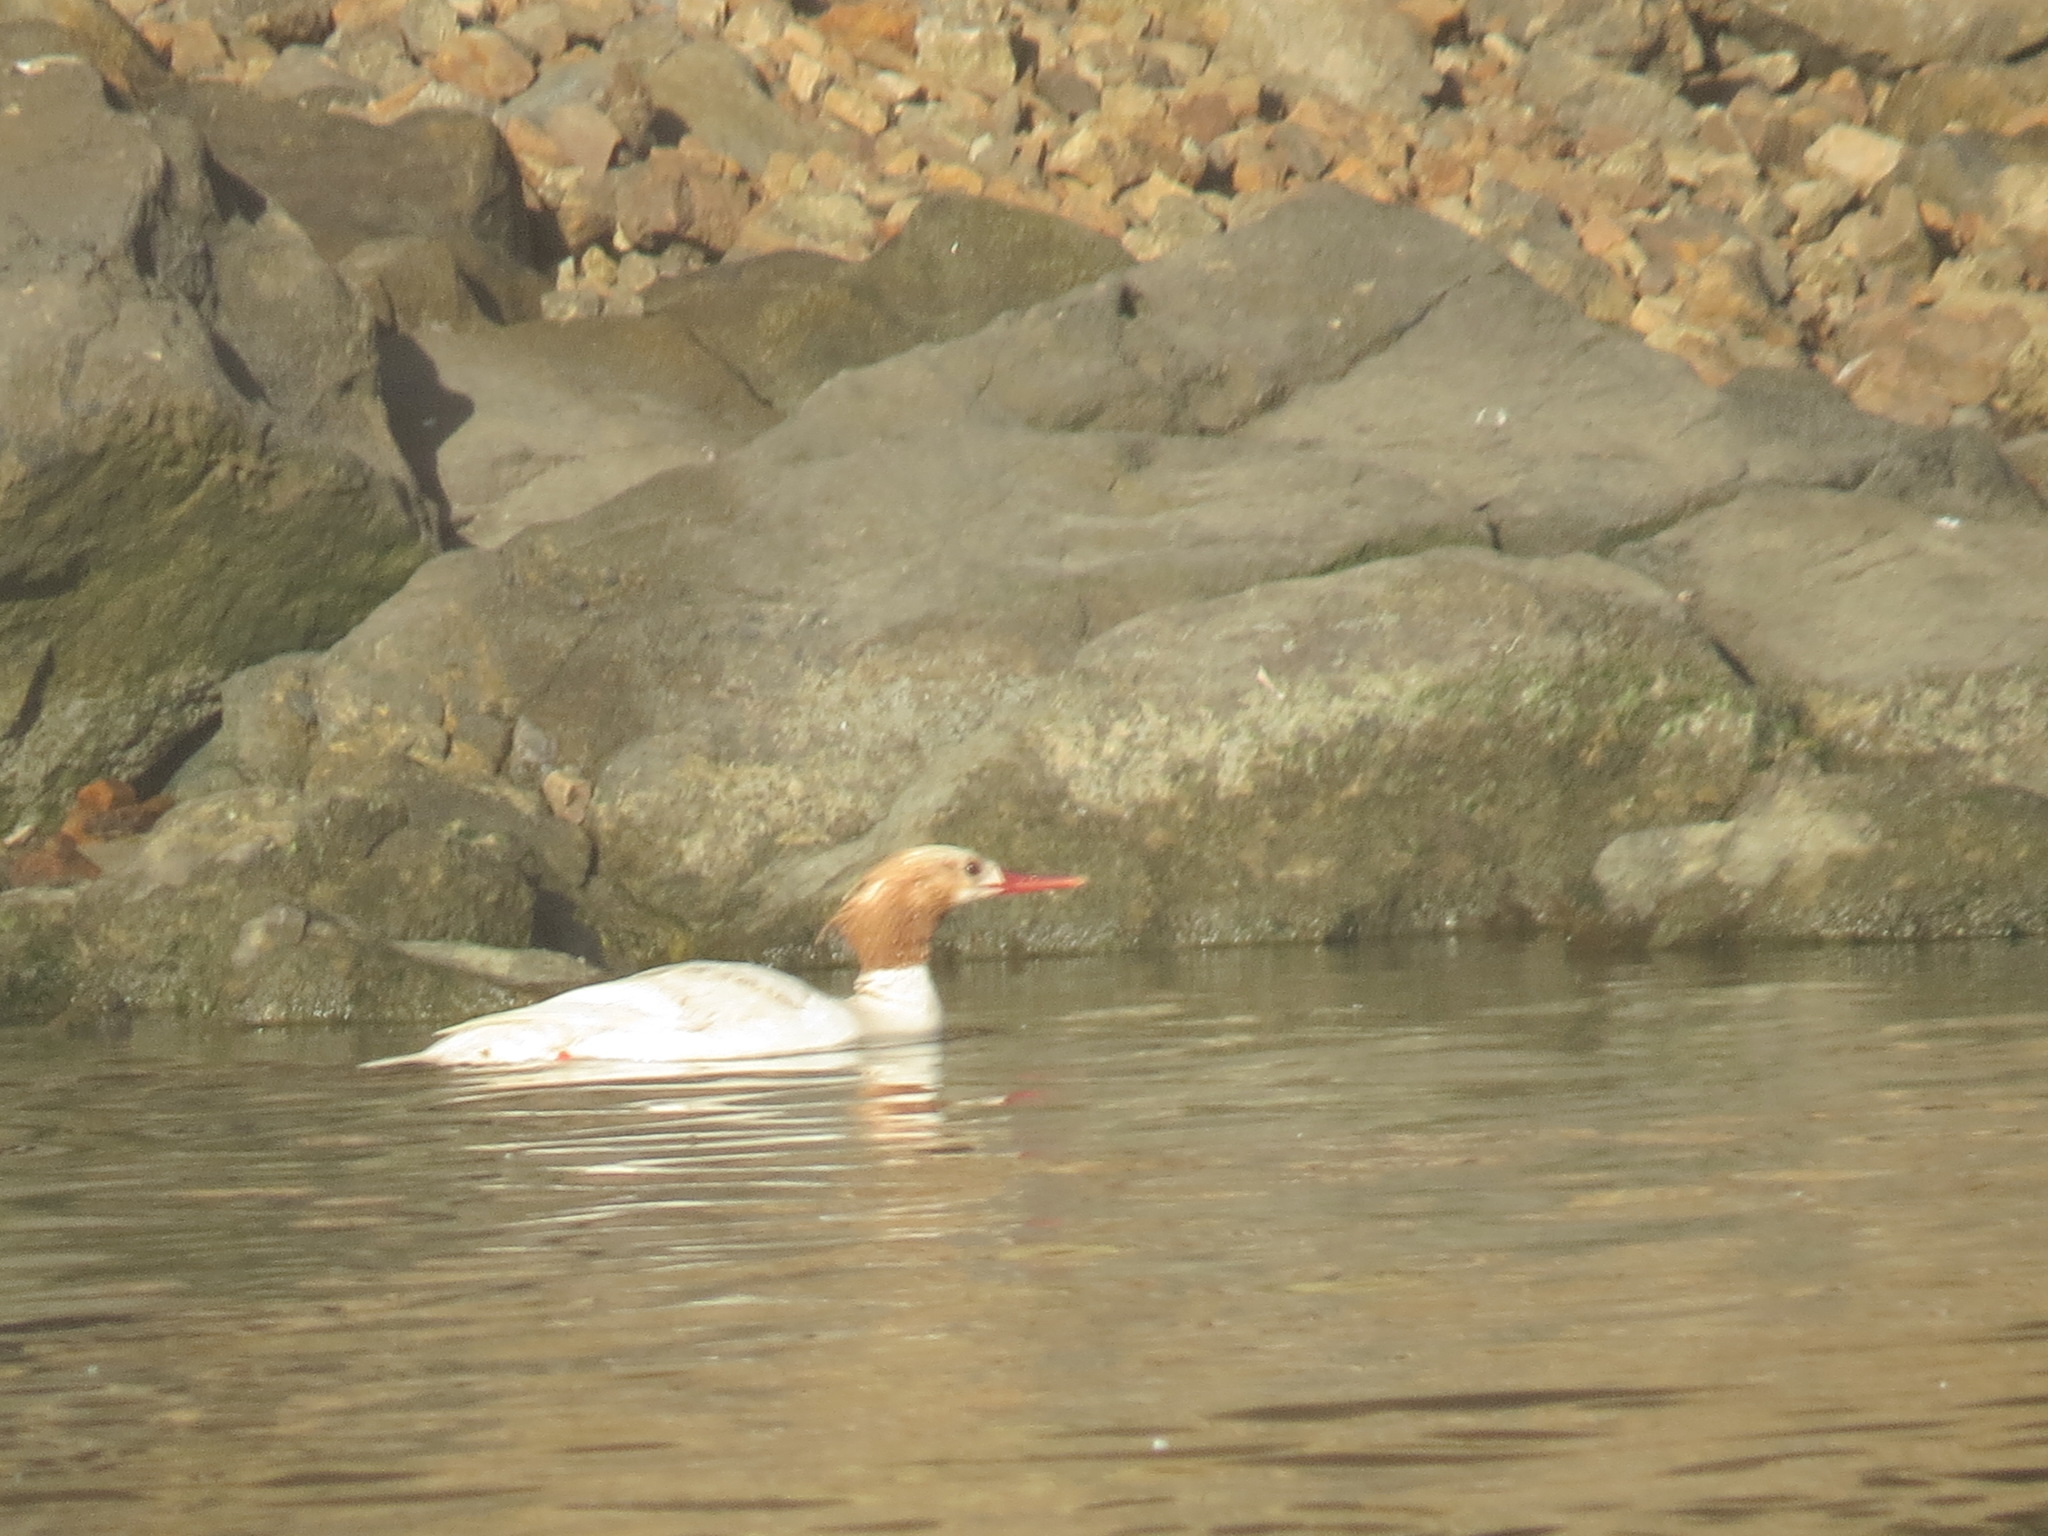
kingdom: Animalia
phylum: Chordata
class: Aves
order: Anseriformes
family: Anatidae
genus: Mergus
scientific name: Mergus merganser
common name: Common merganser
